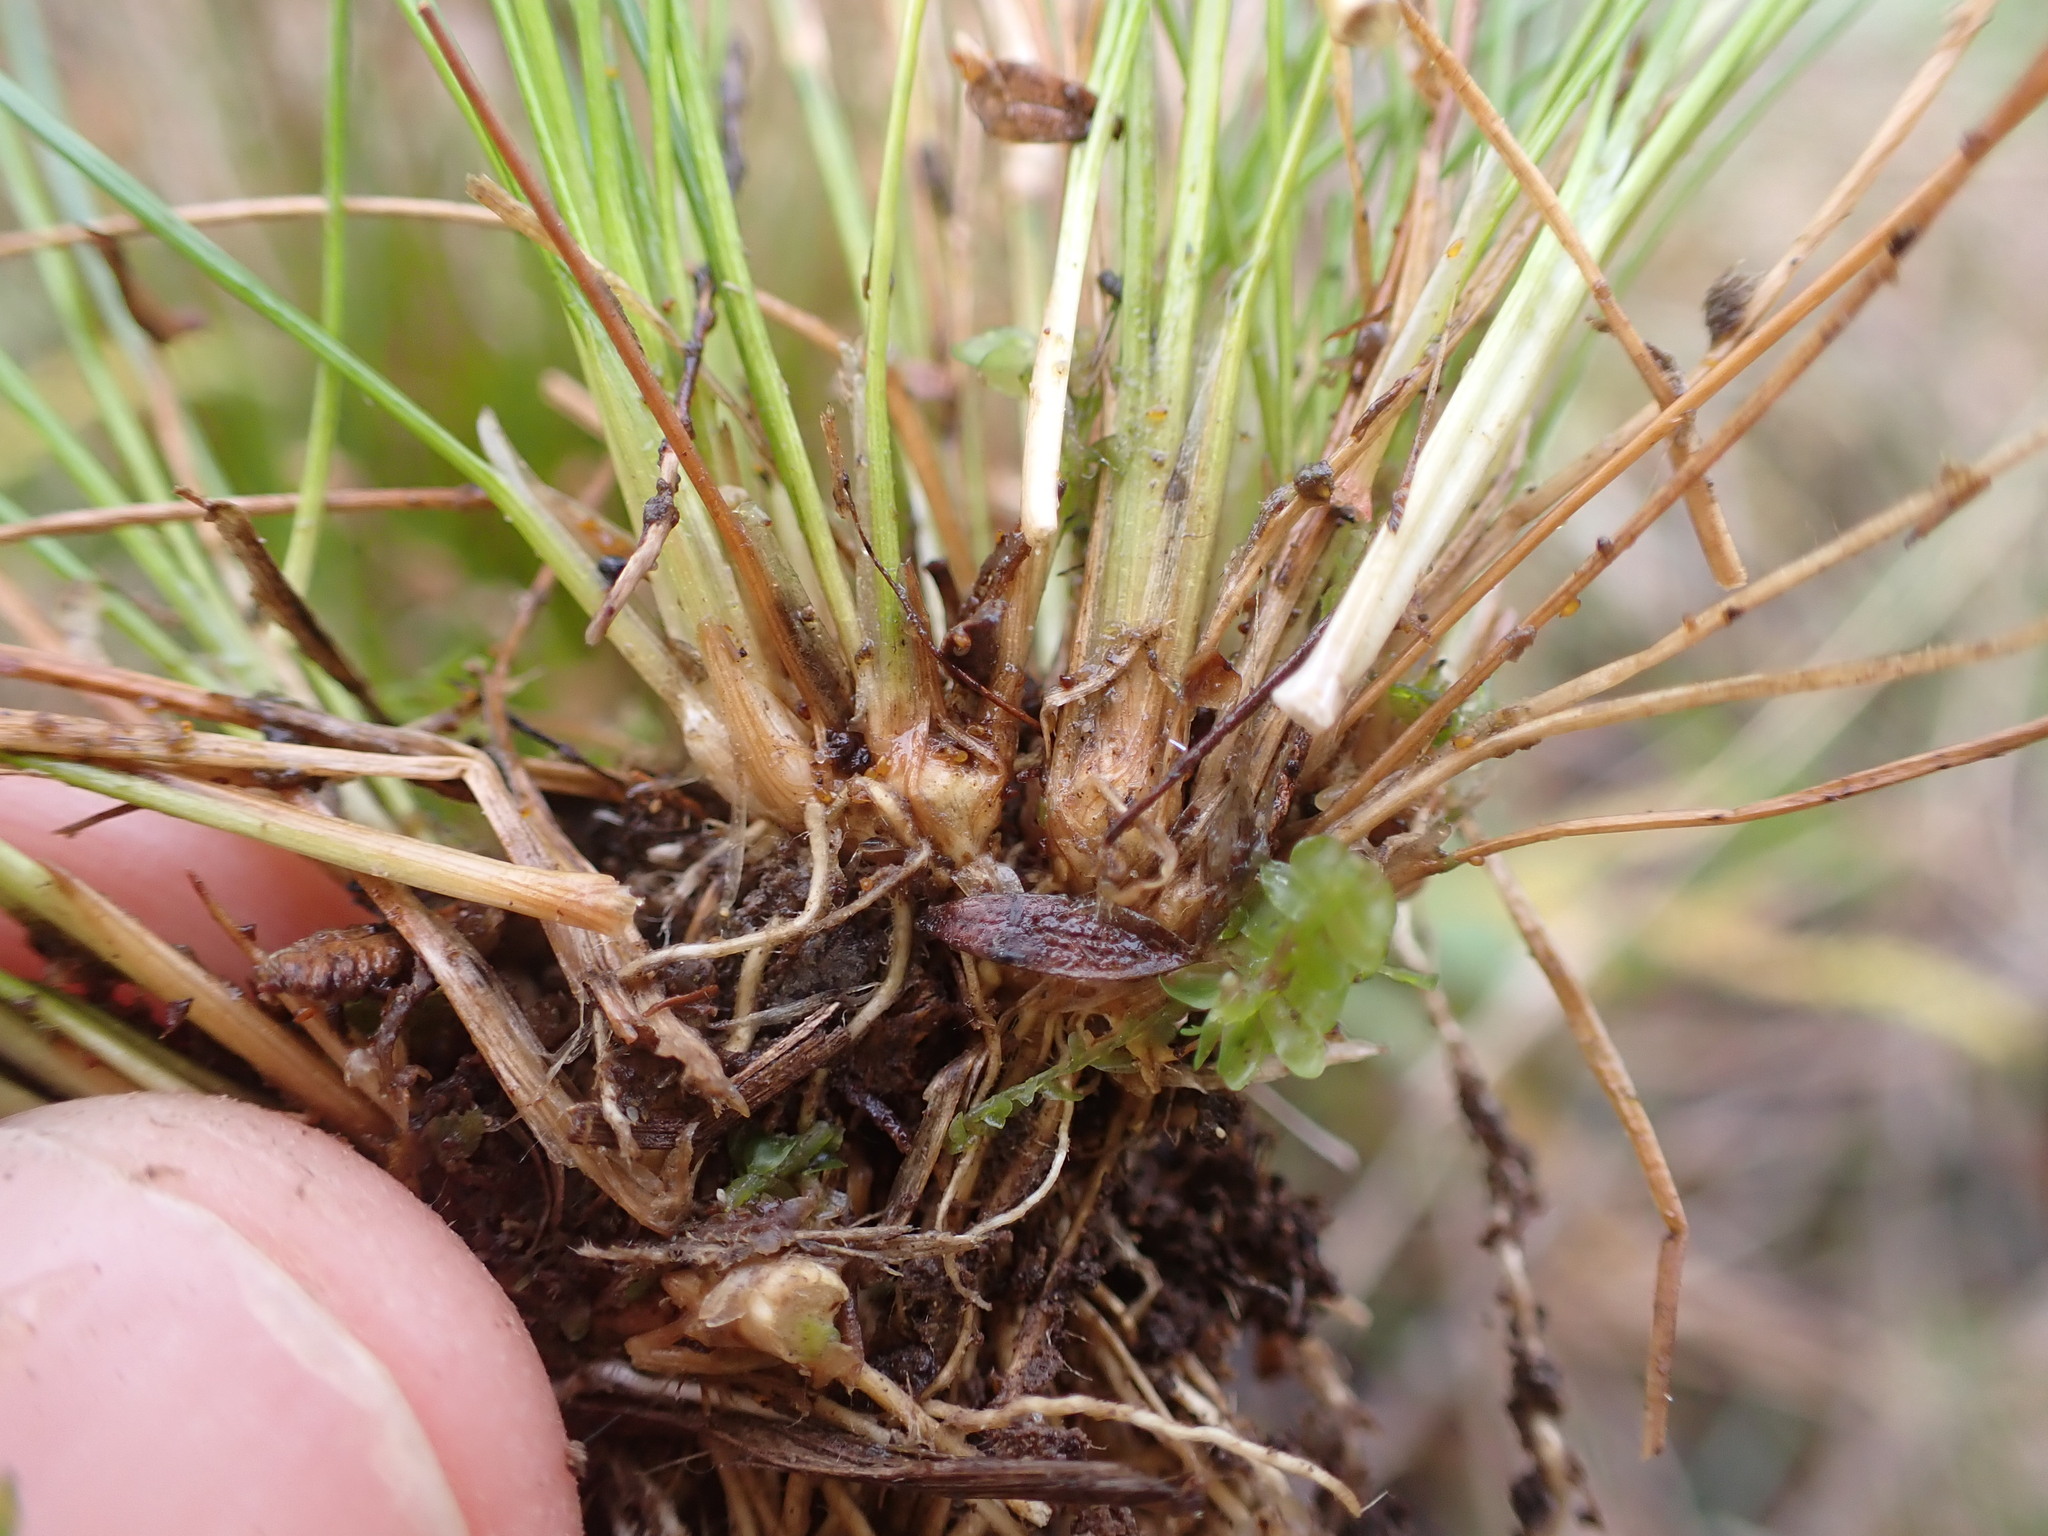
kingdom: Plantae
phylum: Tracheophyta
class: Liliopsida
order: Poales
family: Juncaceae
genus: Juncus
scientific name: Juncus bulbosus
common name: Bulbous rush
